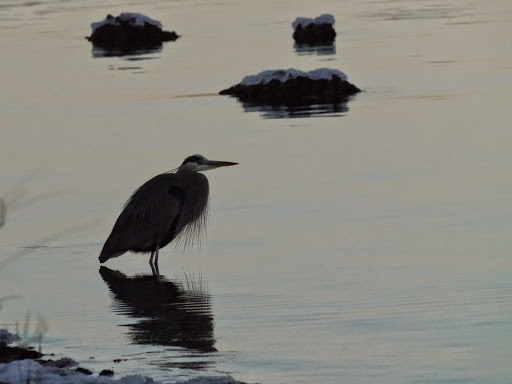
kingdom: Animalia
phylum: Chordata
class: Aves
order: Pelecaniformes
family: Ardeidae
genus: Ardea
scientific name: Ardea herodias
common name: Great blue heron
